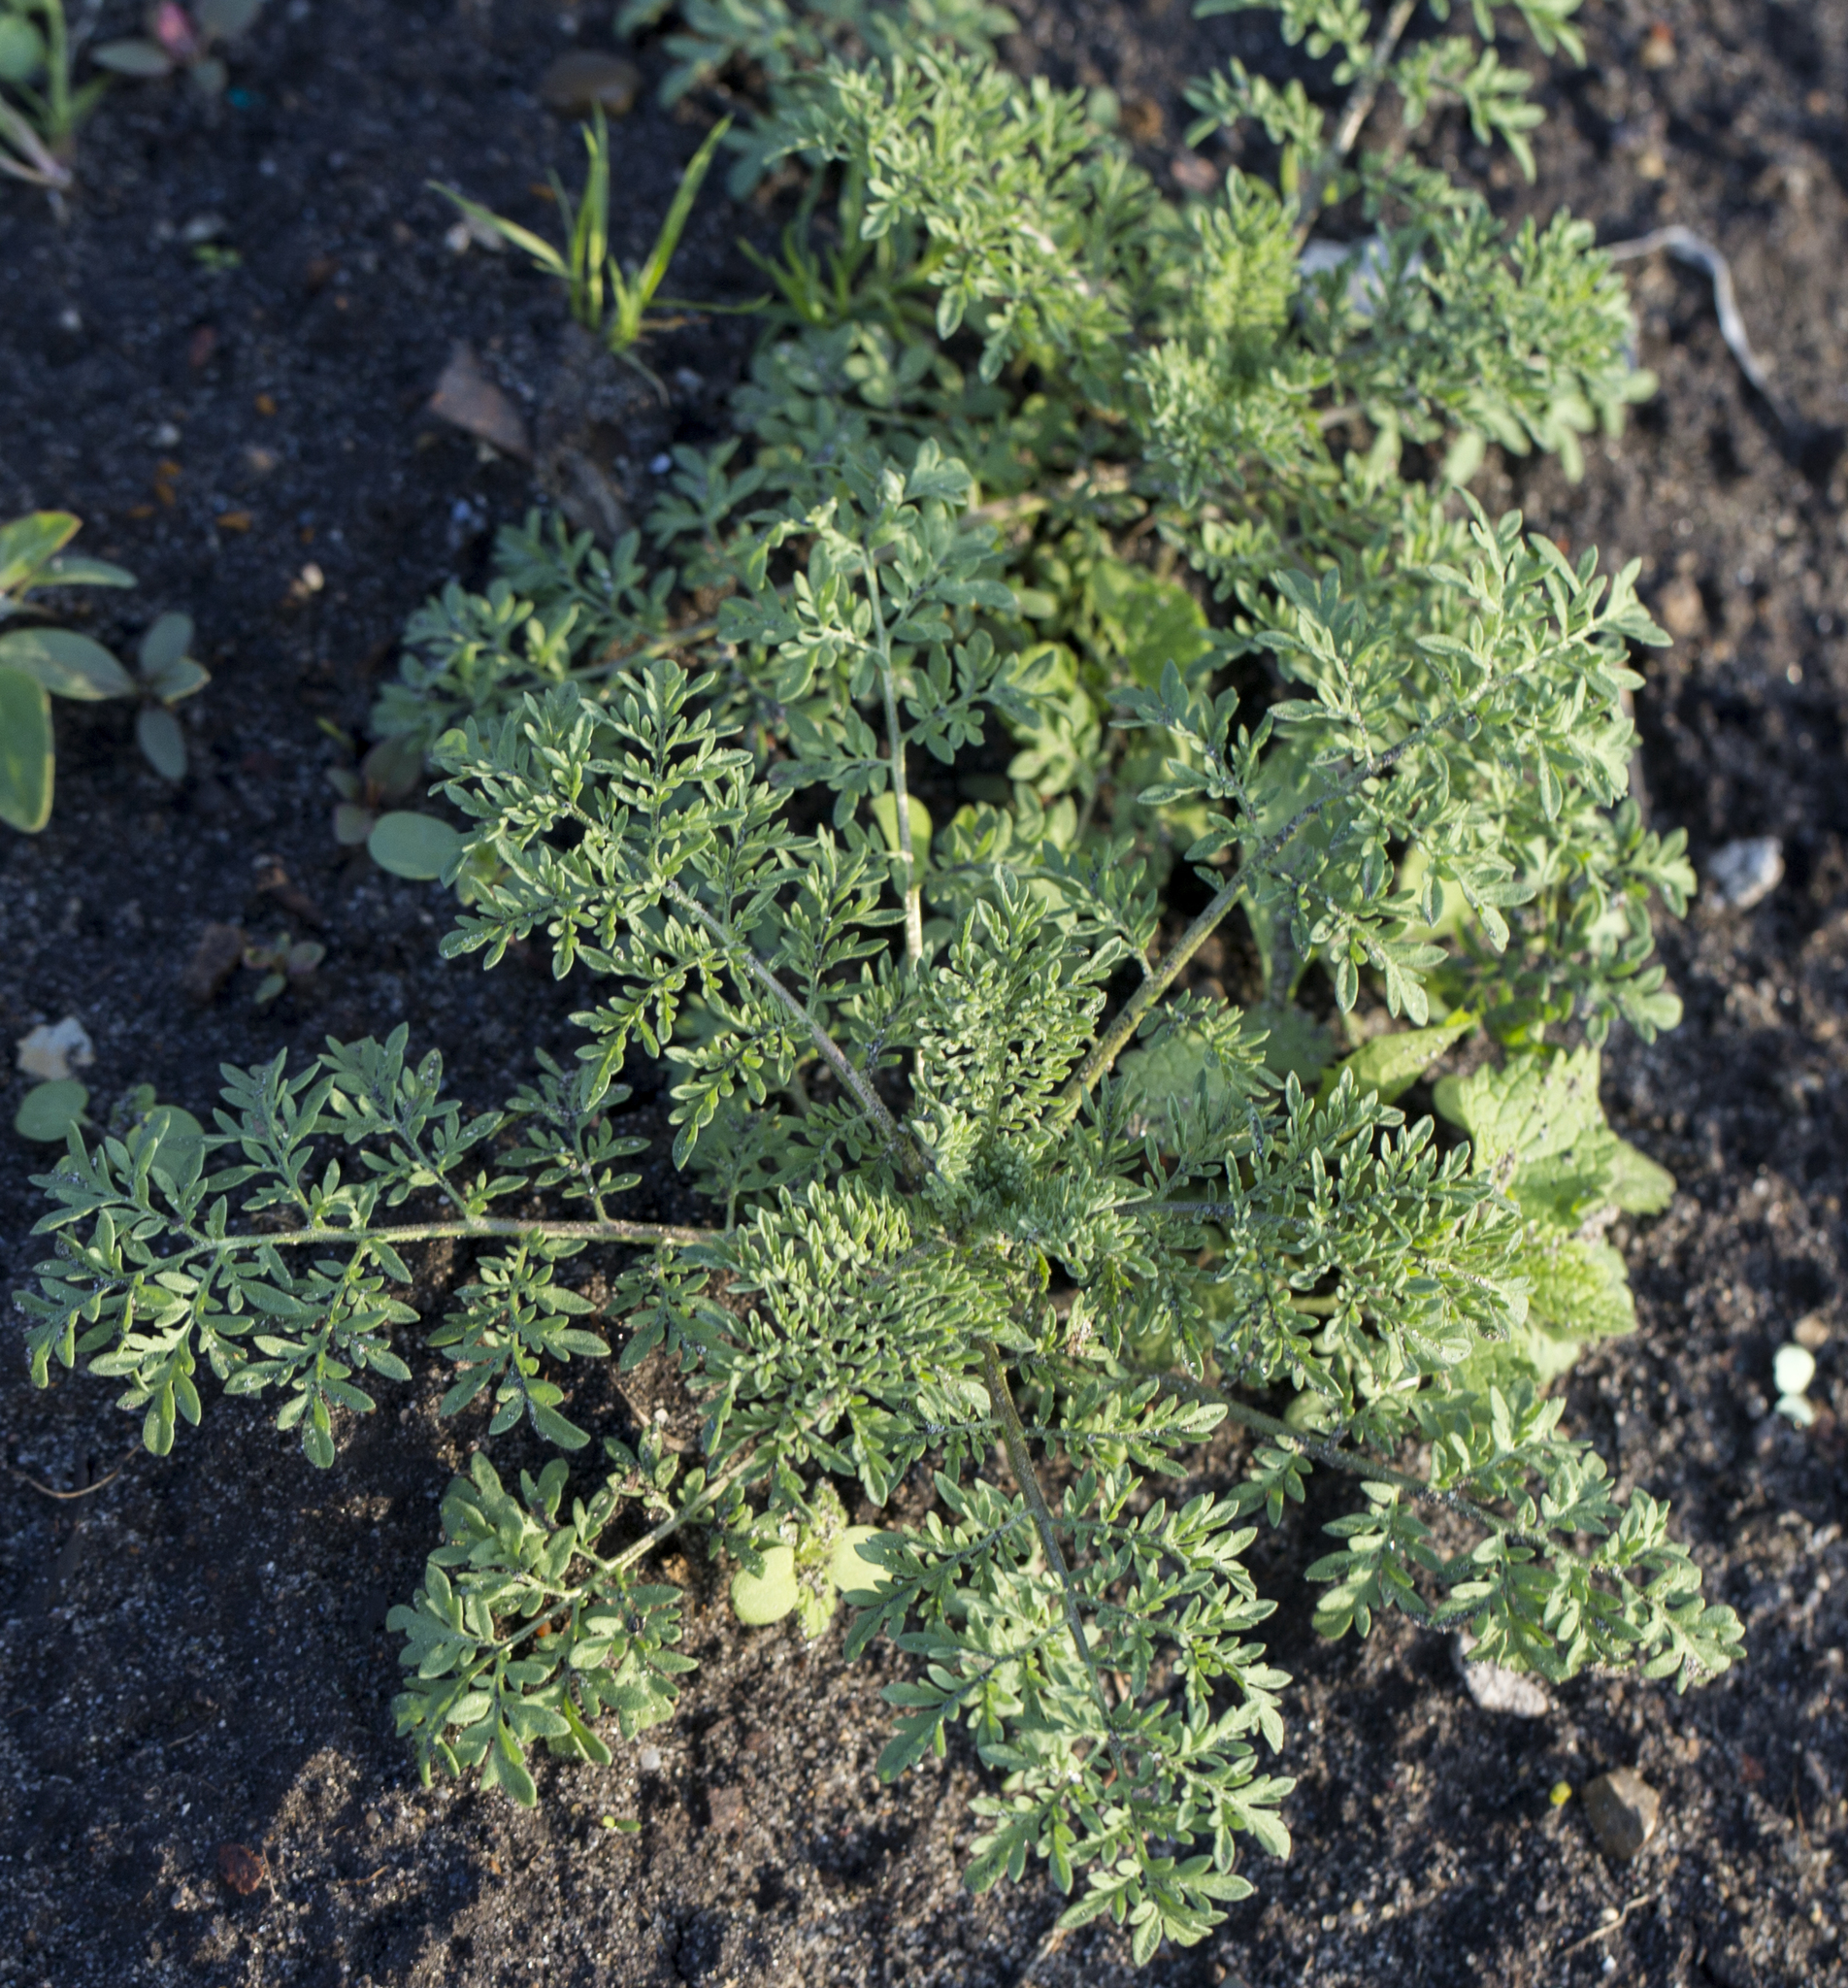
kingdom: Plantae
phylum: Tracheophyta
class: Magnoliopsida
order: Brassicales
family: Brassicaceae
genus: Descurainia
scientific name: Descurainia sophia
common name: Flixweed
